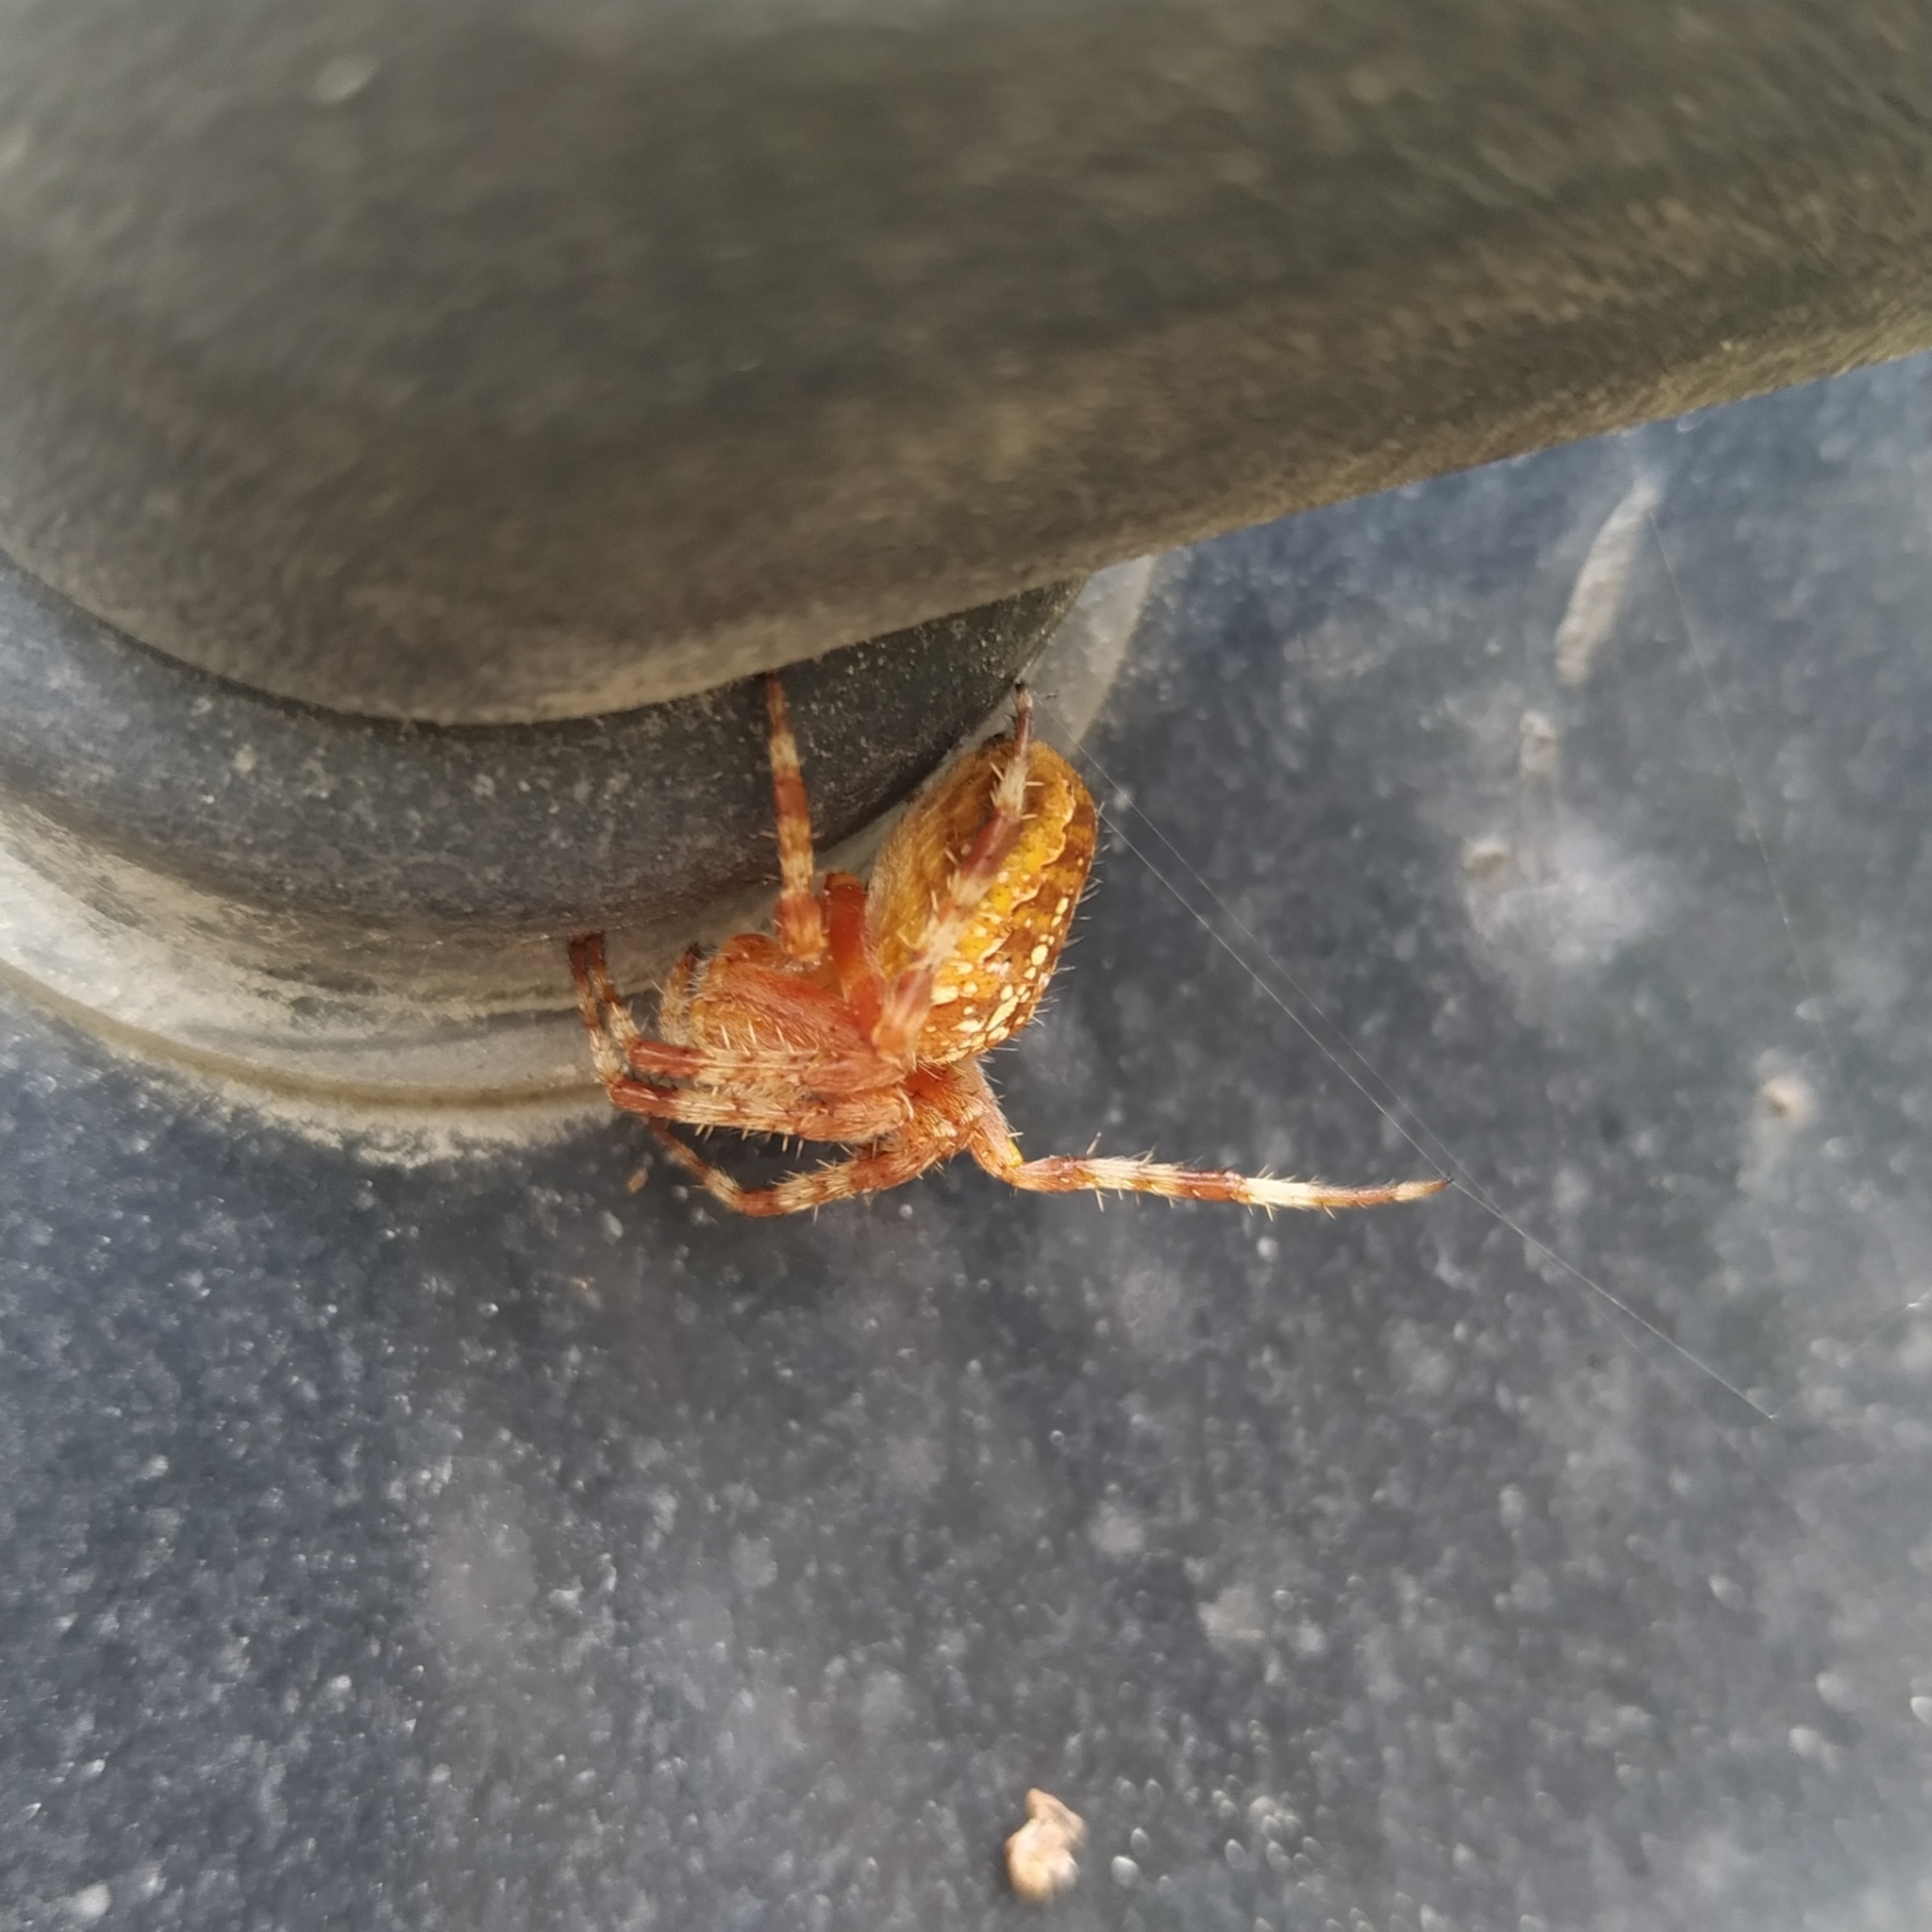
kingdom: Animalia
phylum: Arthropoda
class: Arachnida
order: Araneae
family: Araneidae
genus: Araneus
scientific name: Araneus diadematus
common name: Cross orbweaver
